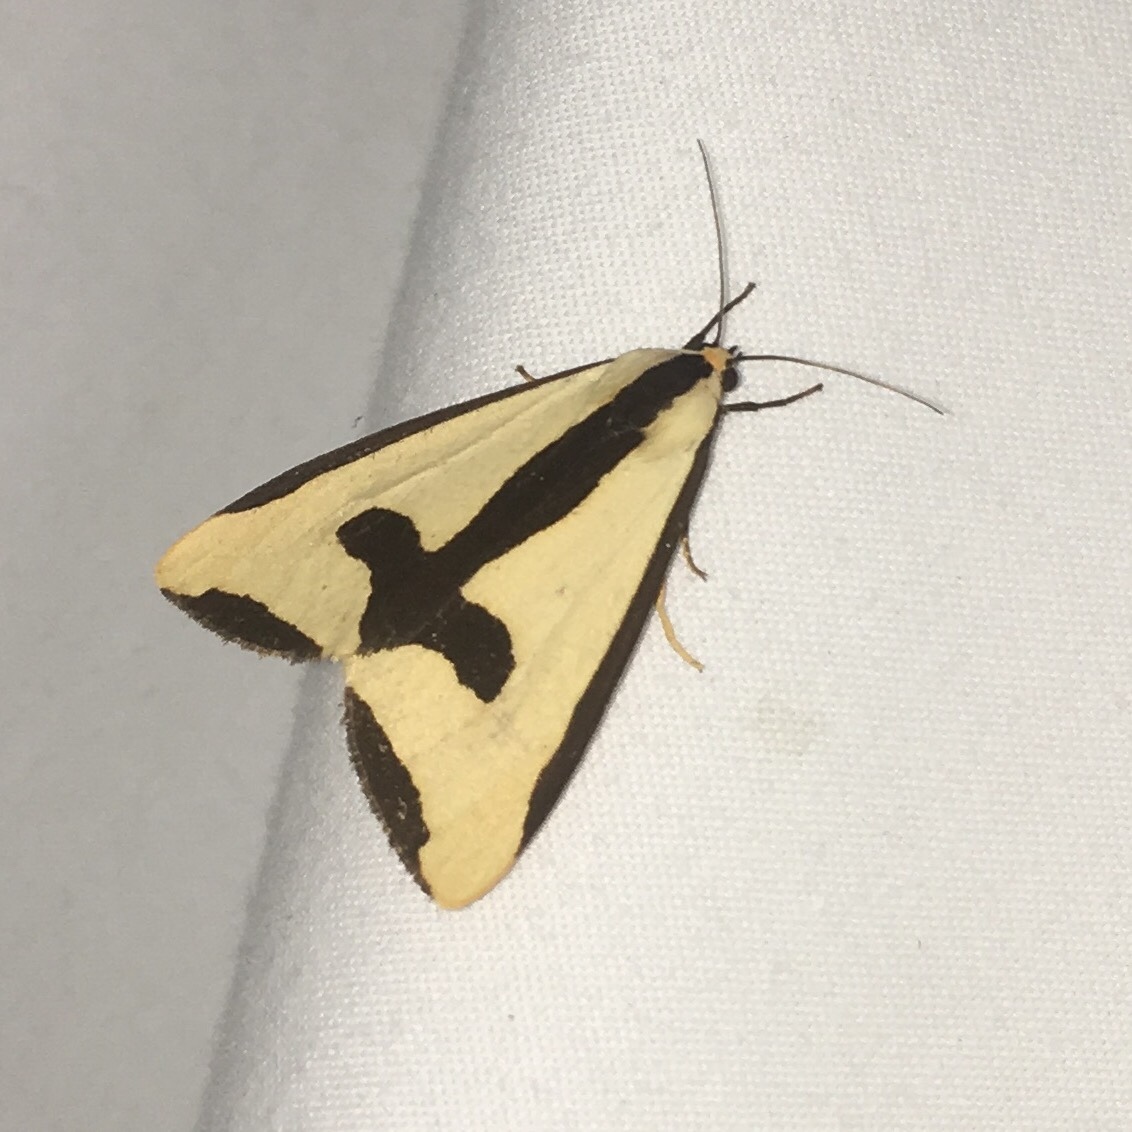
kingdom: Animalia
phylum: Arthropoda
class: Insecta
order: Lepidoptera
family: Erebidae
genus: Haploa
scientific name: Haploa clymene
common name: Clymene moth
